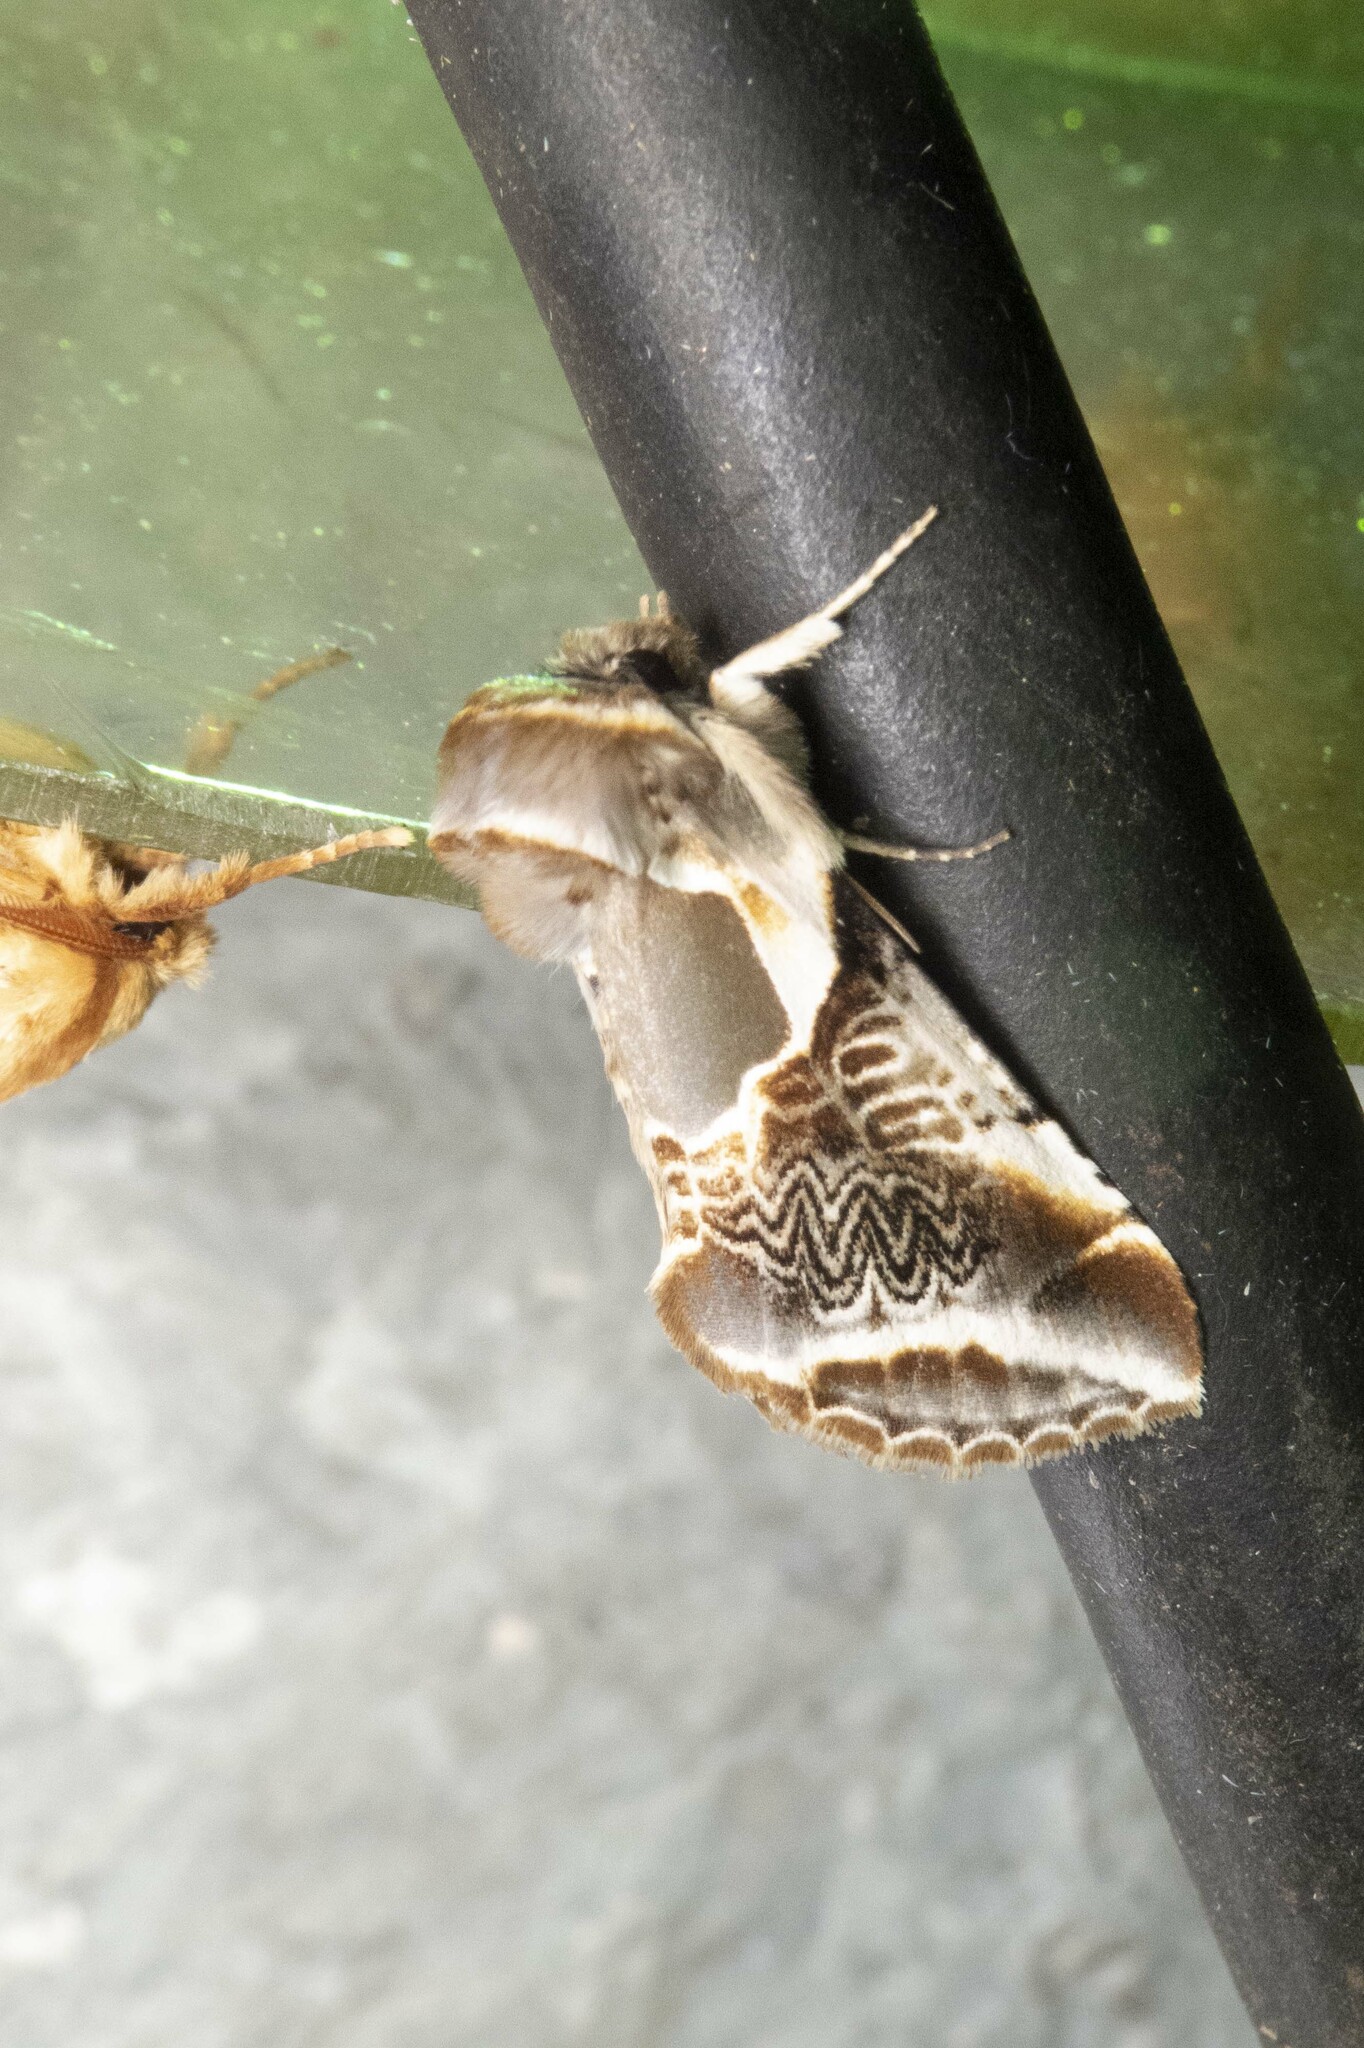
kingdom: Animalia
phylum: Arthropoda
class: Insecta
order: Lepidoptera
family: Drepanidae
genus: Habrosyne
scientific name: Habrosyne scripta
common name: Lettered habrosyne moth
